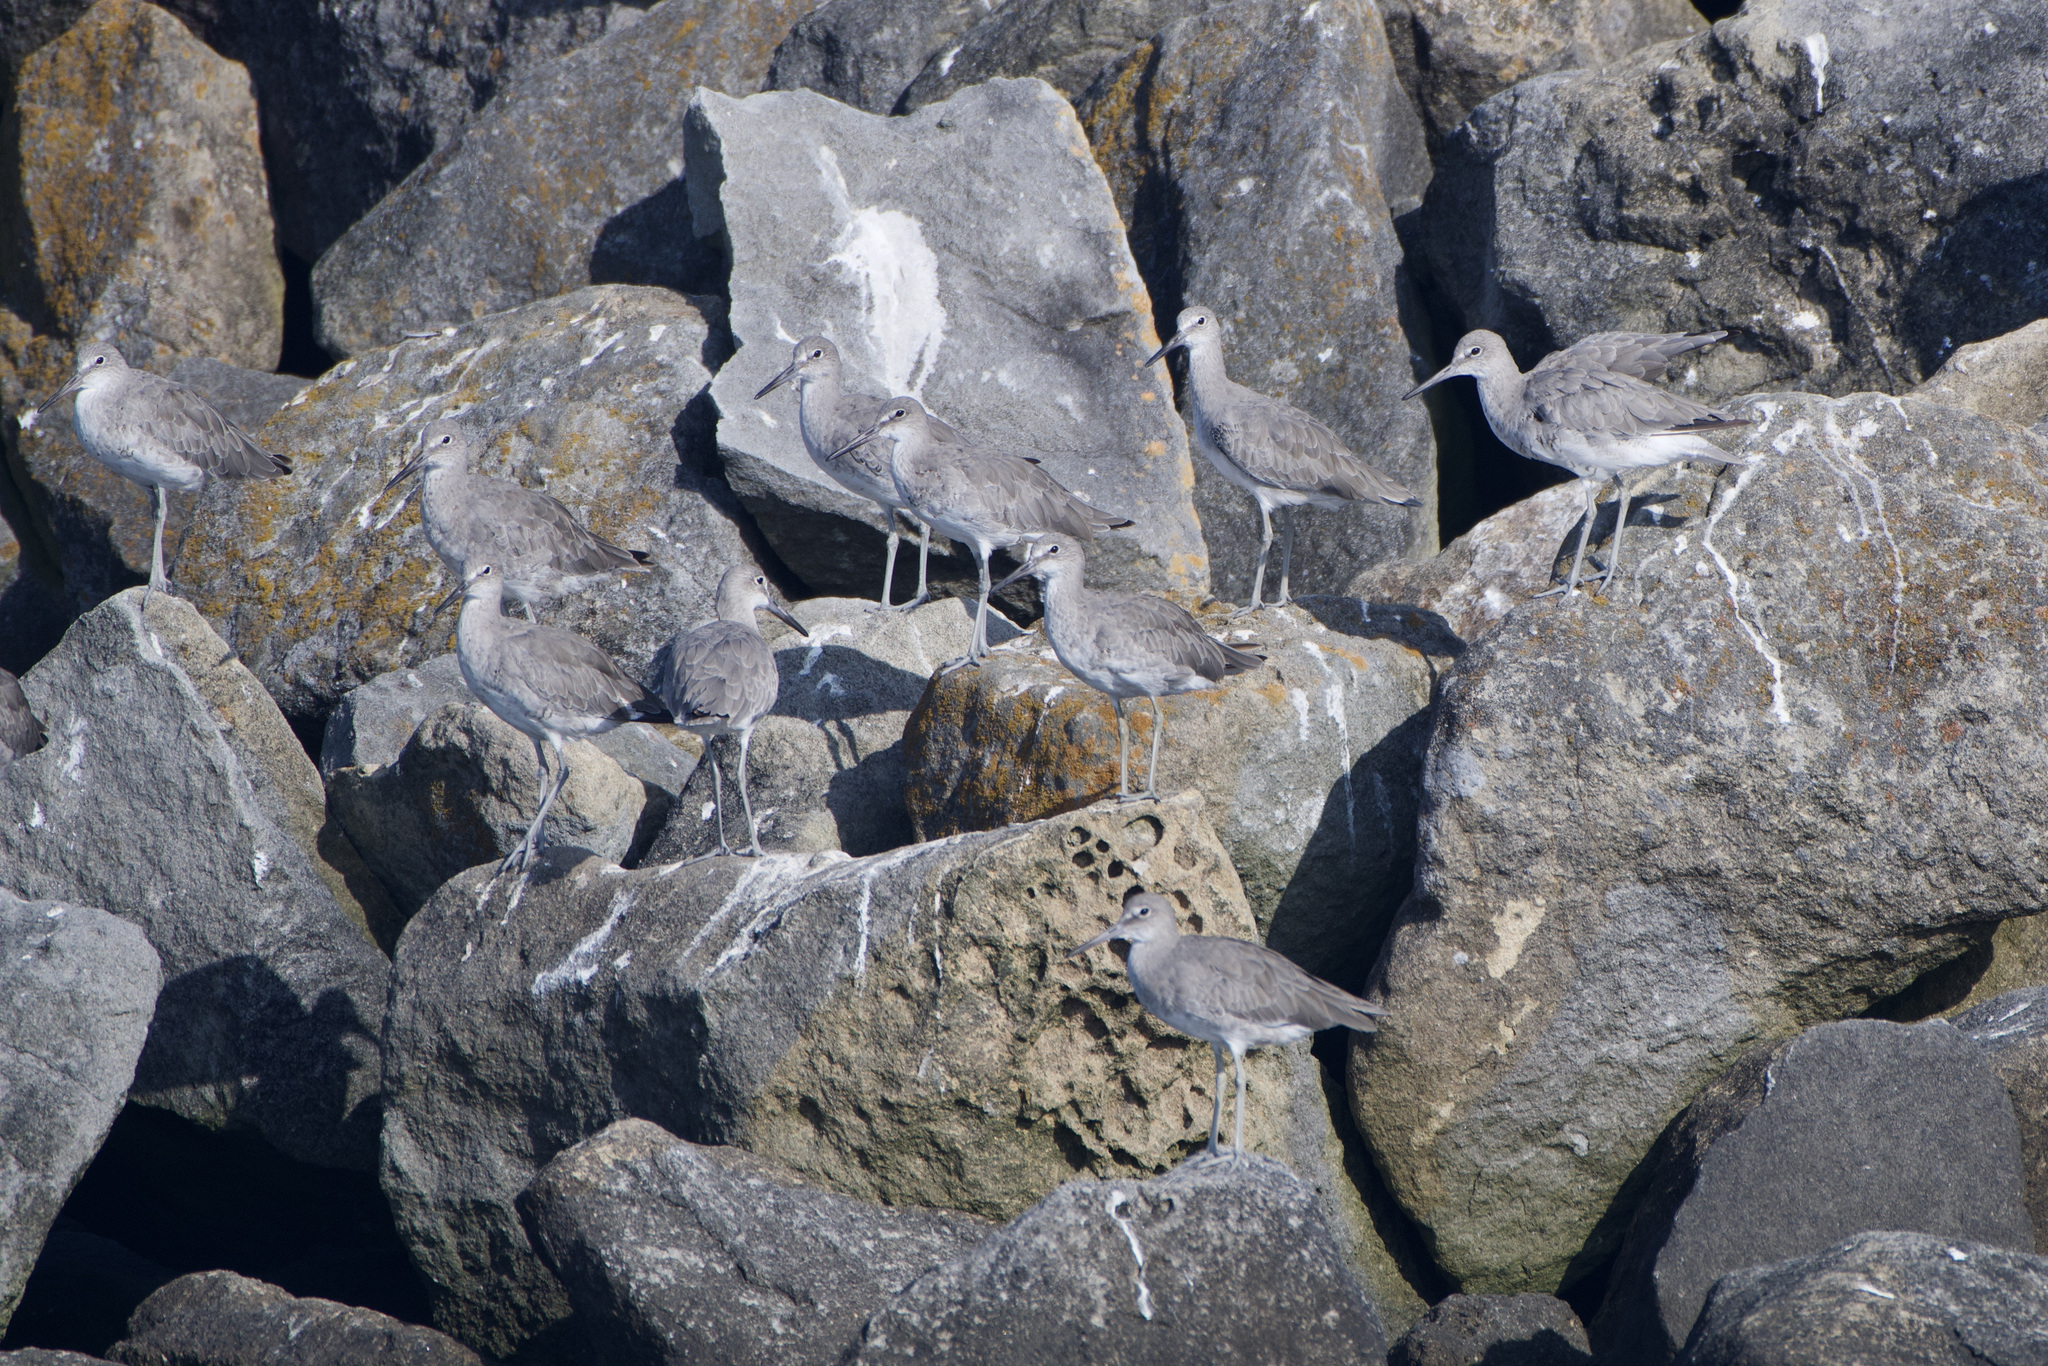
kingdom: Animalia
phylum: Chordata
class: Aves
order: Charadriiformes
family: Scolopacidae
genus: Tringa
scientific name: Tringa semipalmata
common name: Willet
